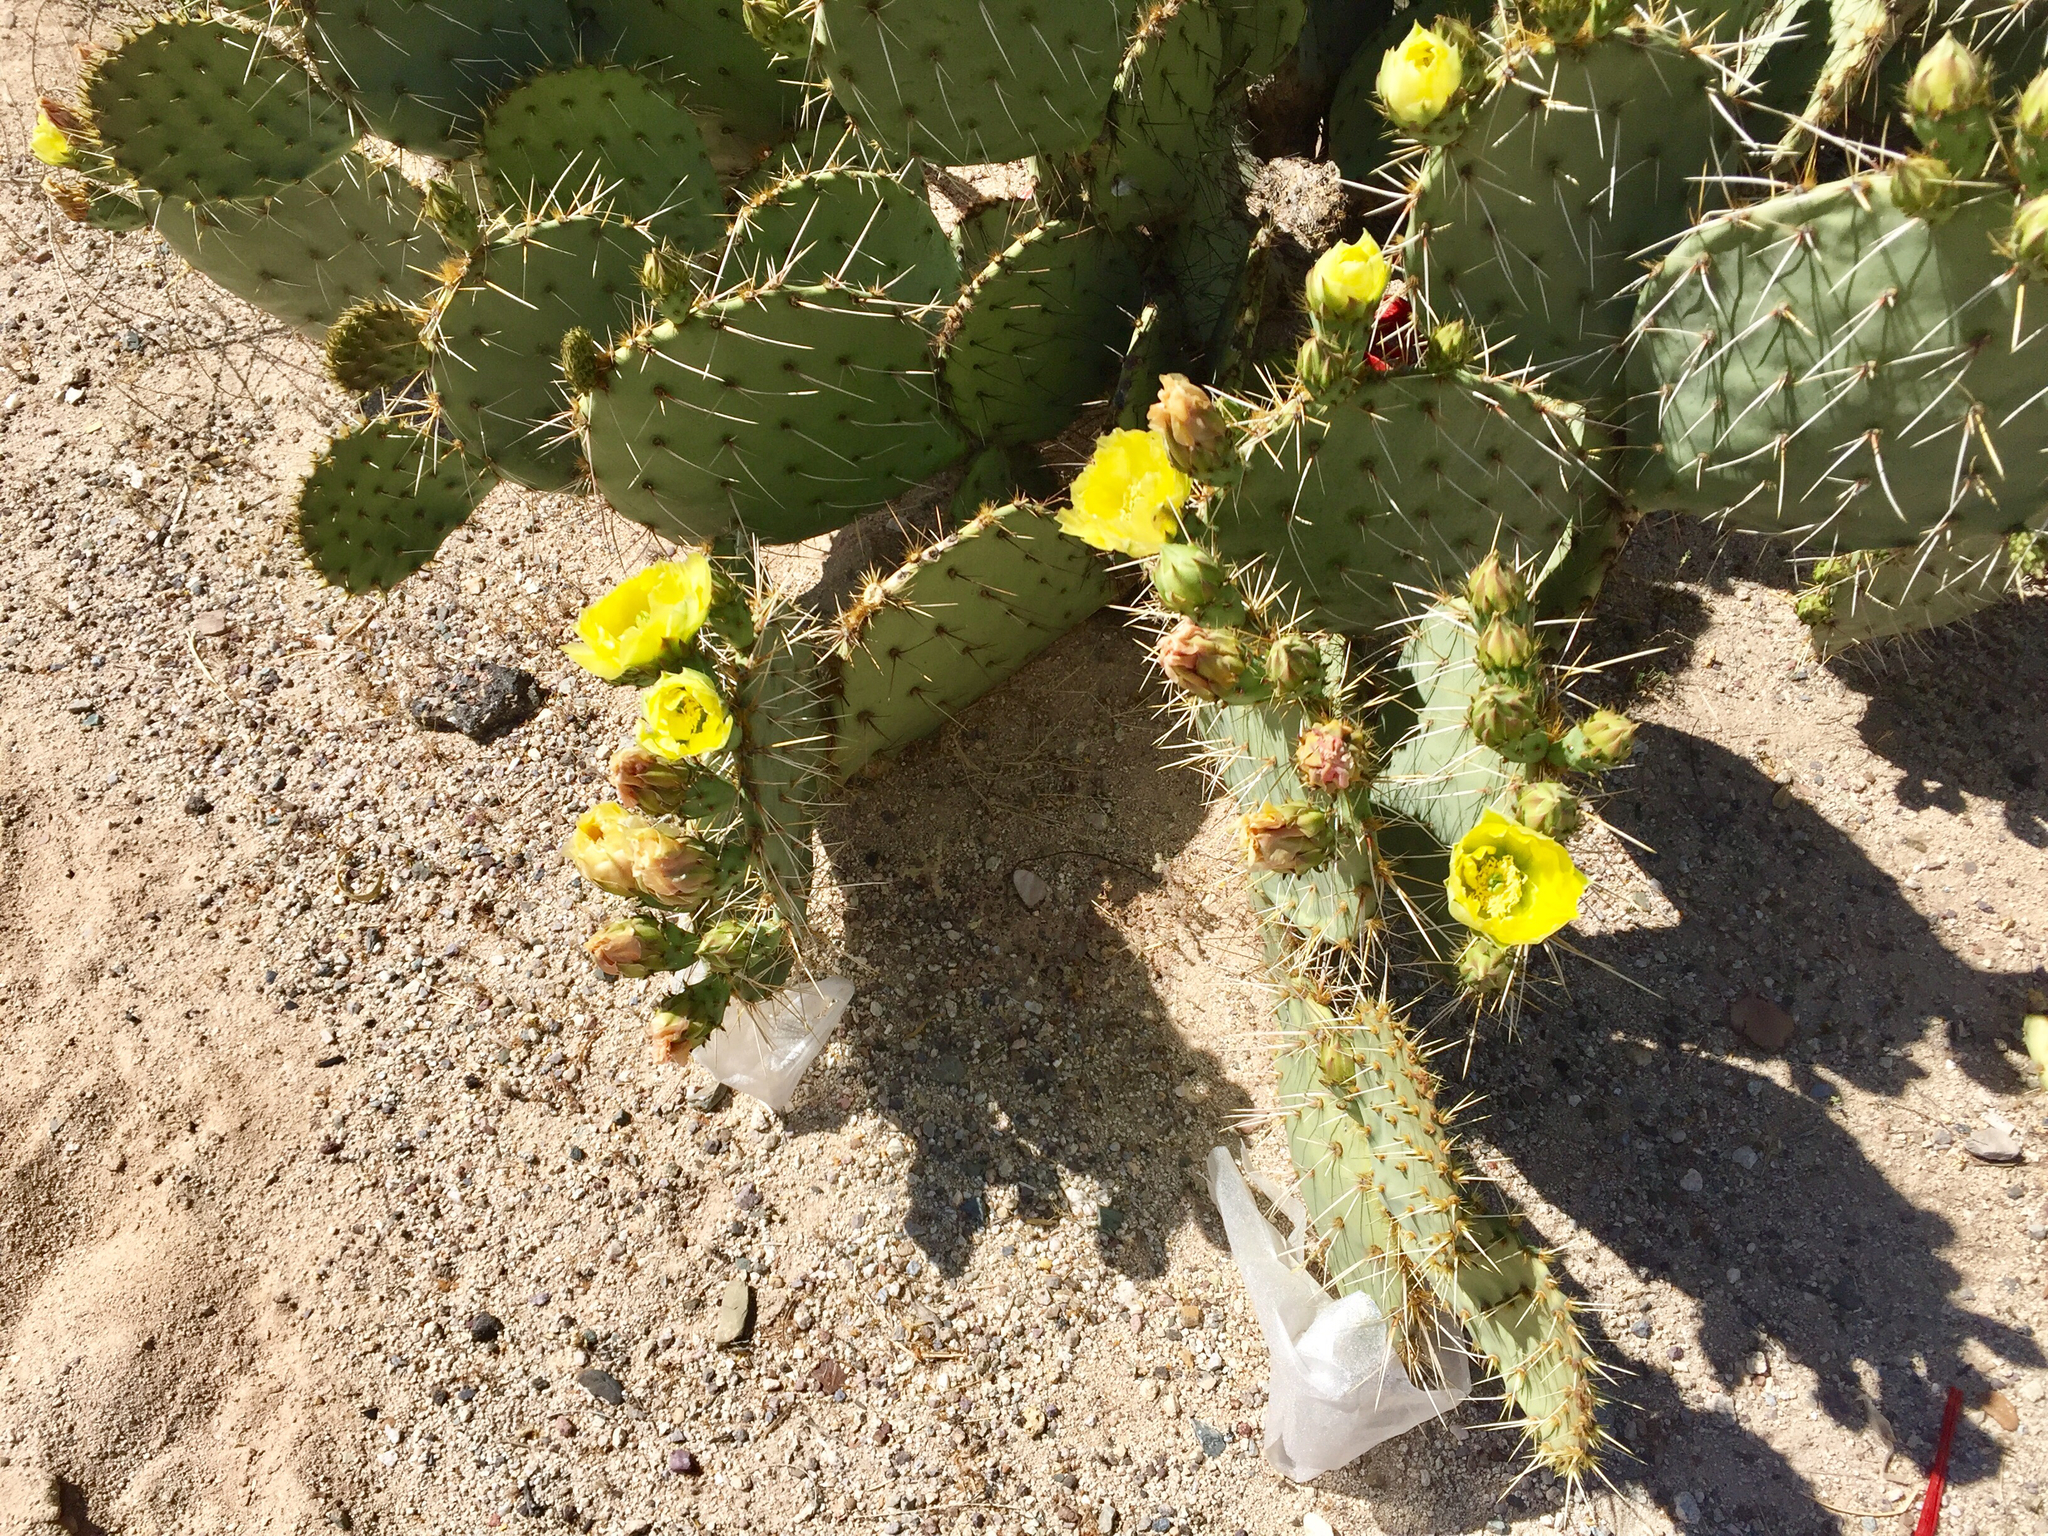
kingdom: Plantae
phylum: Tracheophyta
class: Magnoliopsida
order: Caryophyllales
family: Cactaceae
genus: Opuntia
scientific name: Opuntia engelmannii
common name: Cactus-apple
